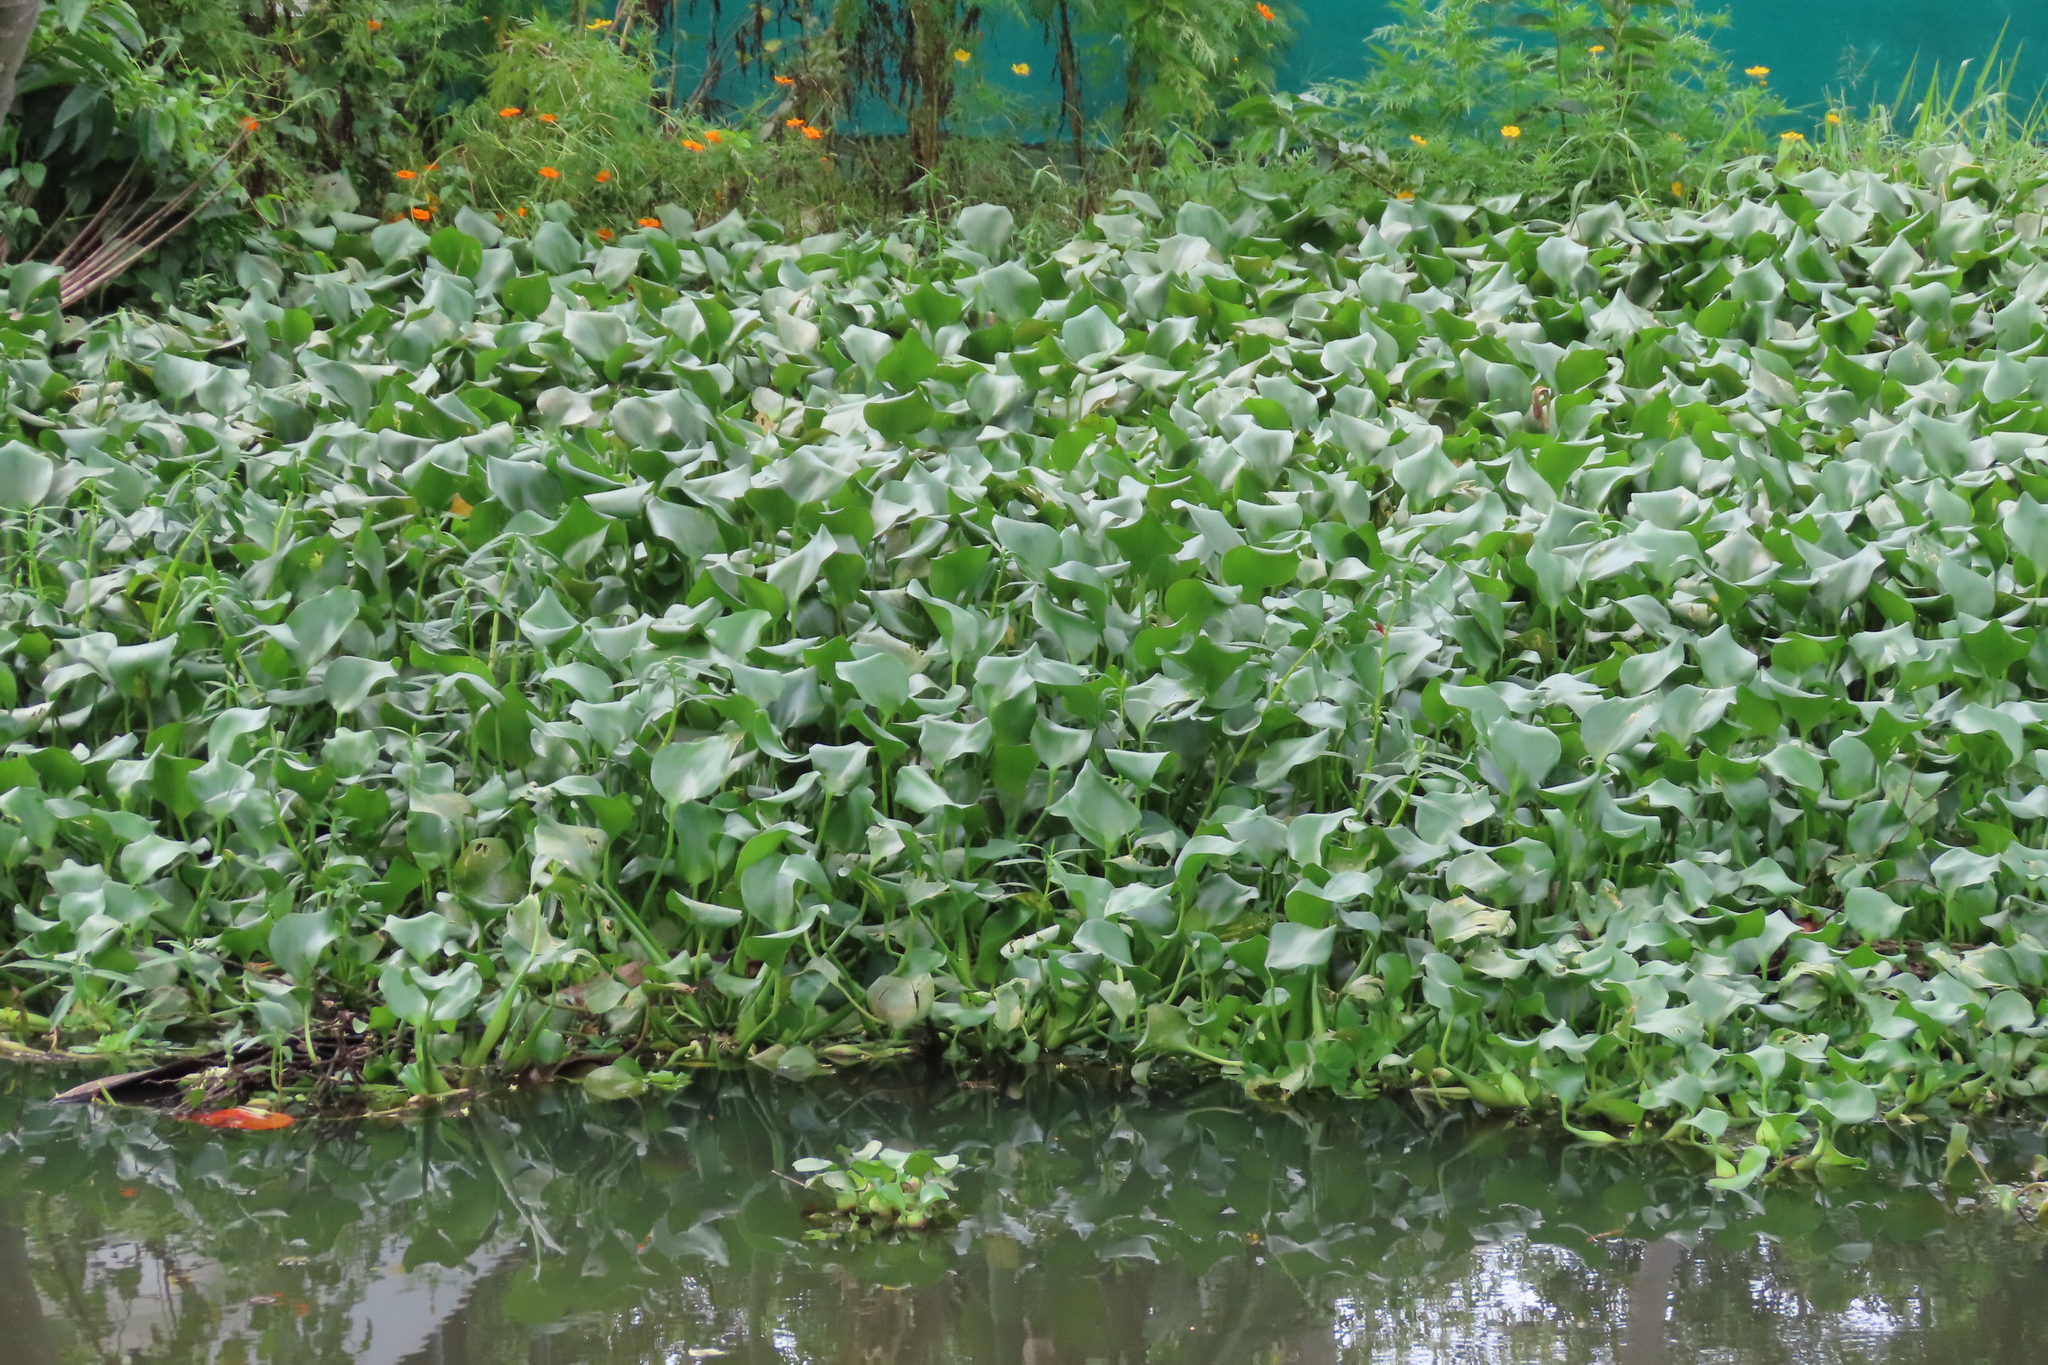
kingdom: Plantae
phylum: Tracheophyta
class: Liliopsida
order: Commelinales
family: Pontederiaceae
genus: Pontederia
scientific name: Pontederia crassipes
